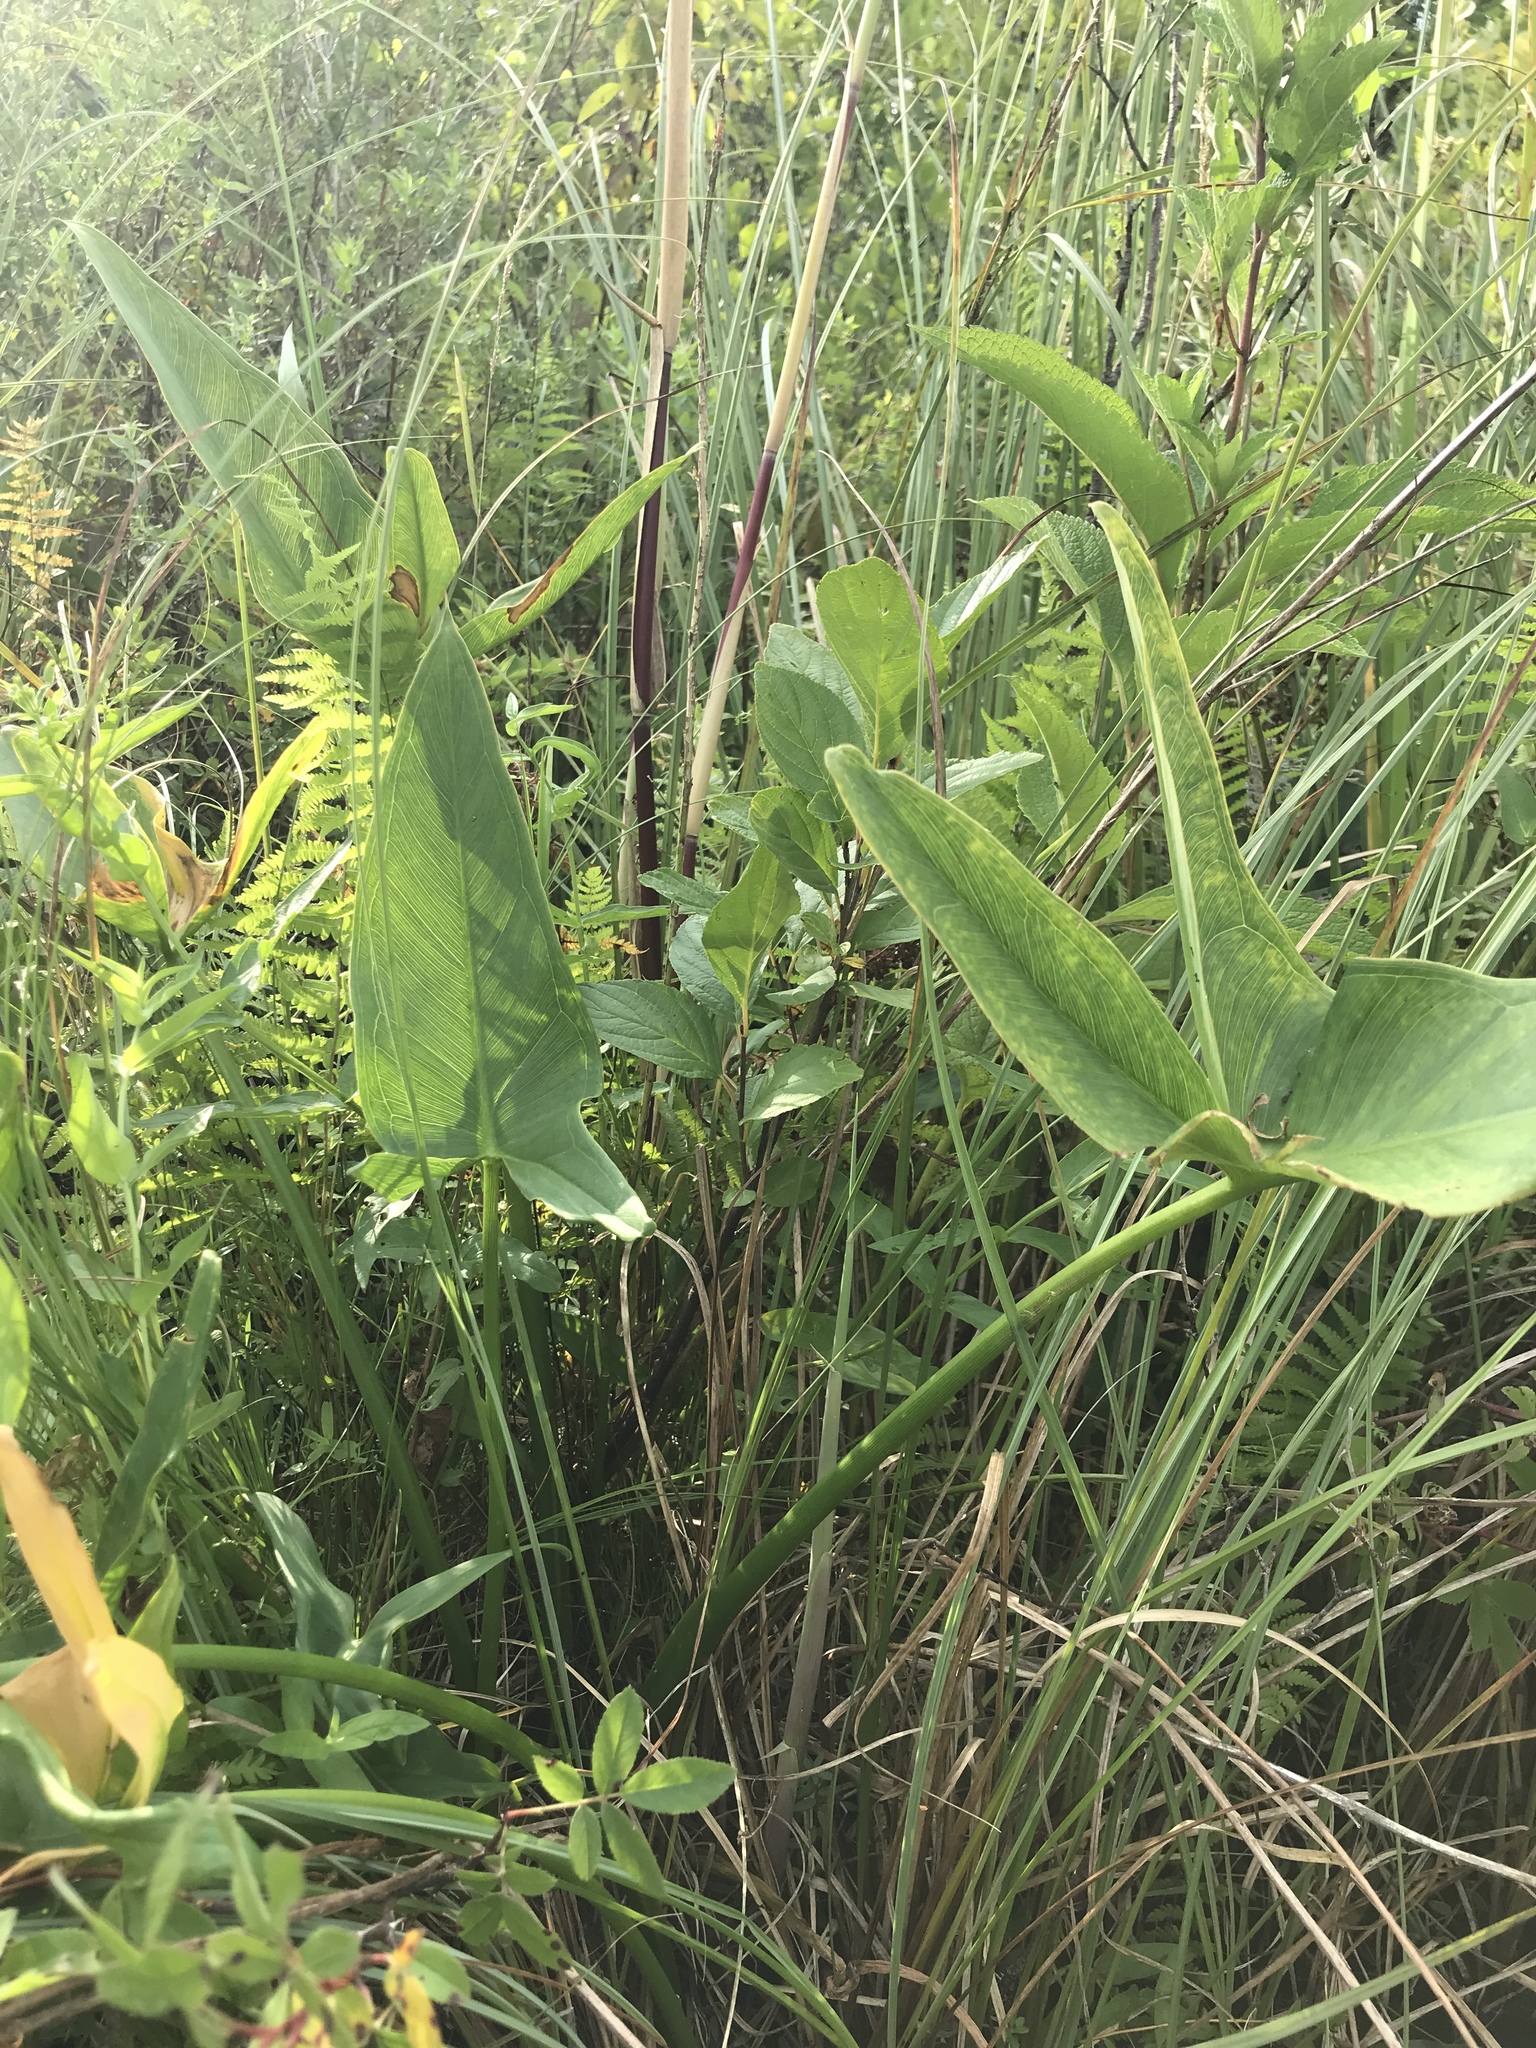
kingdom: Plantae
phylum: Tracheophyta
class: Liliopsida
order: Poales
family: Poaceae
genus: Phragmites
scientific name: Phragmites australis
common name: Common reed
